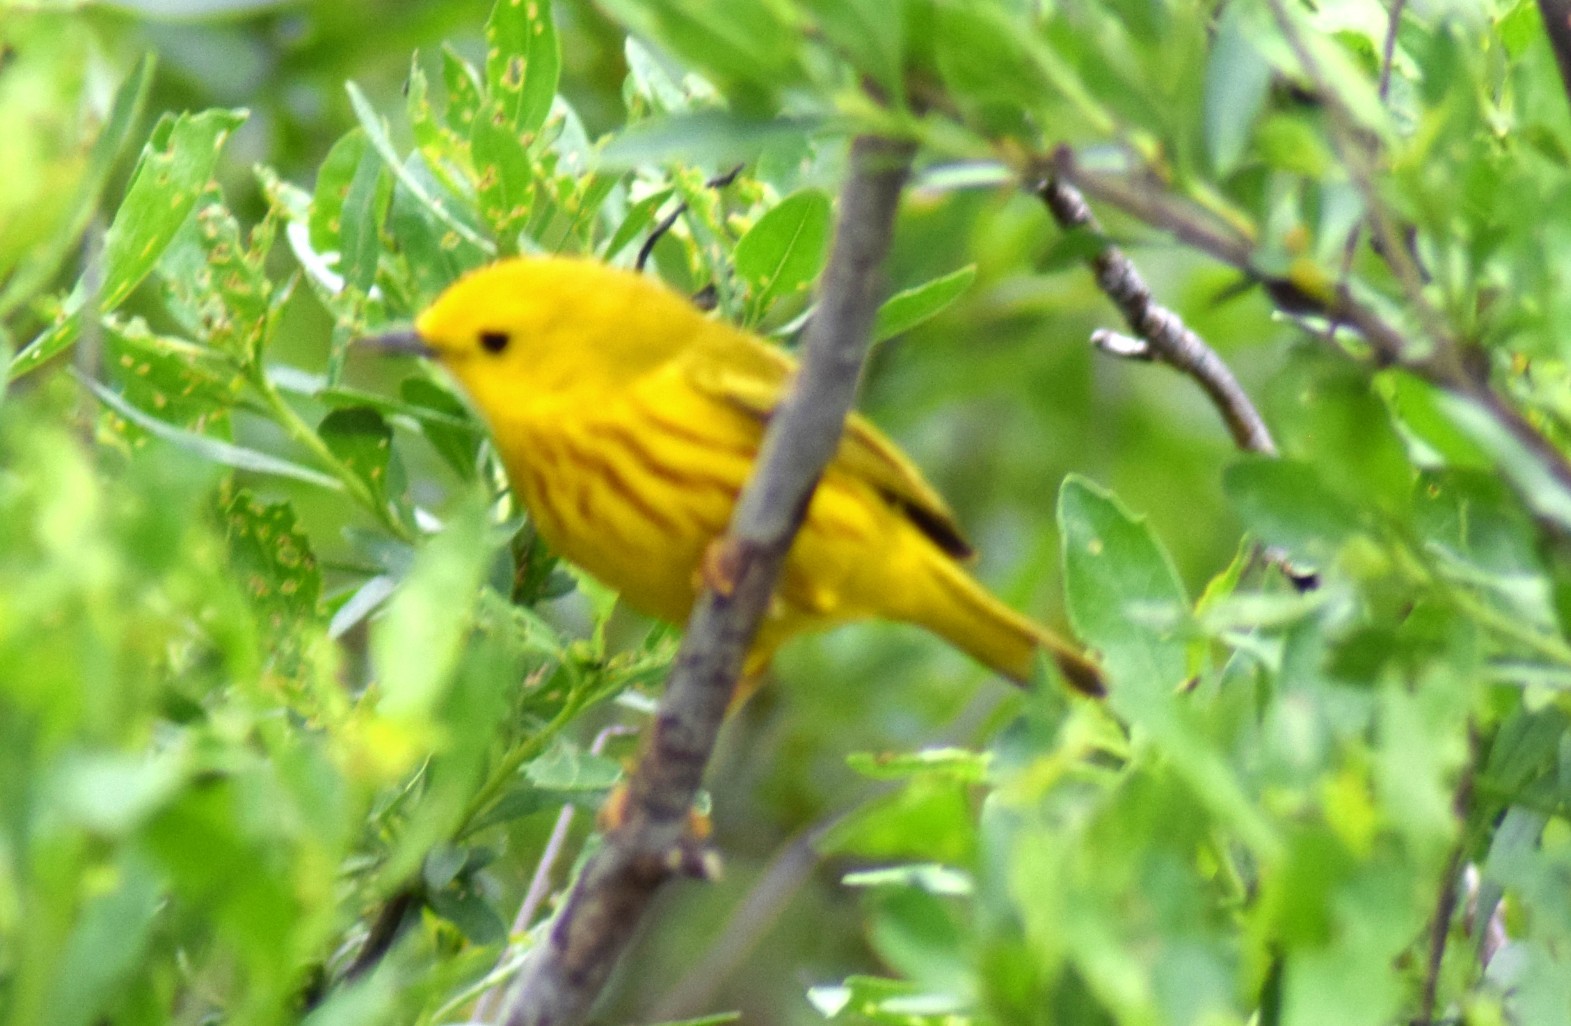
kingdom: Animalia
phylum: Chordata
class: Aves
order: Passeriformes
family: Parulidae
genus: Setophaga
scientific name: Setophaga petechia
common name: Yellow warbler
